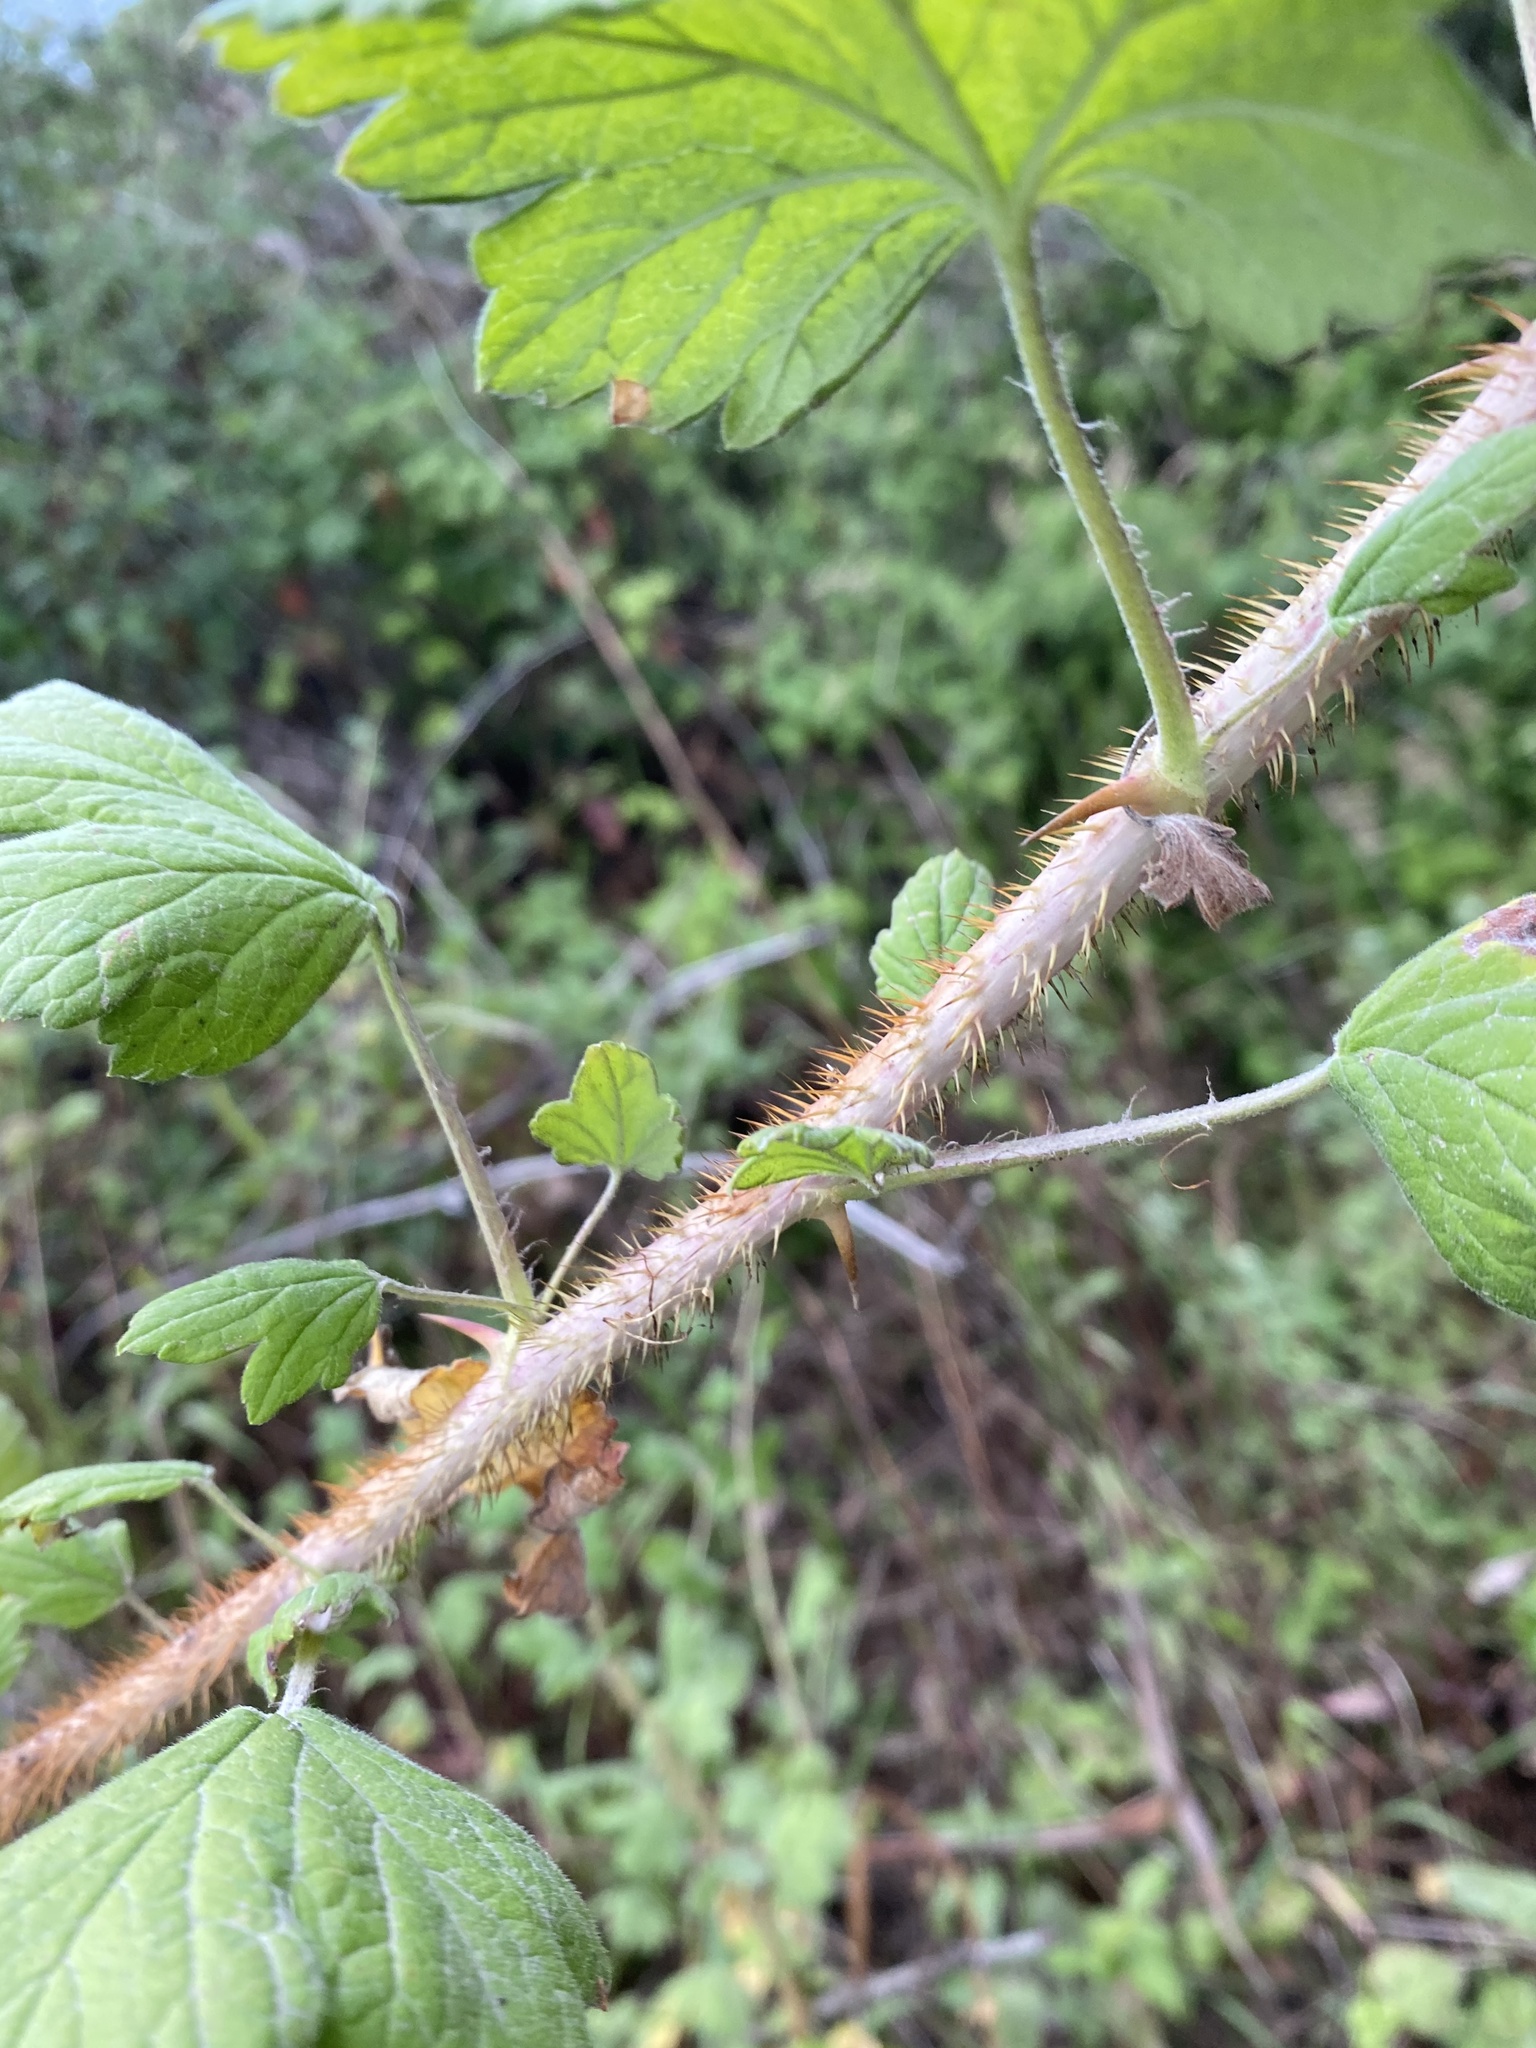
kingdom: Plantae
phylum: Tracheophyta
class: Magnoliopsida
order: Saxifragales
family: Grossulariaceae
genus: Ribes
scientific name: Ribes divaricatum
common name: Wild black gooseberry
